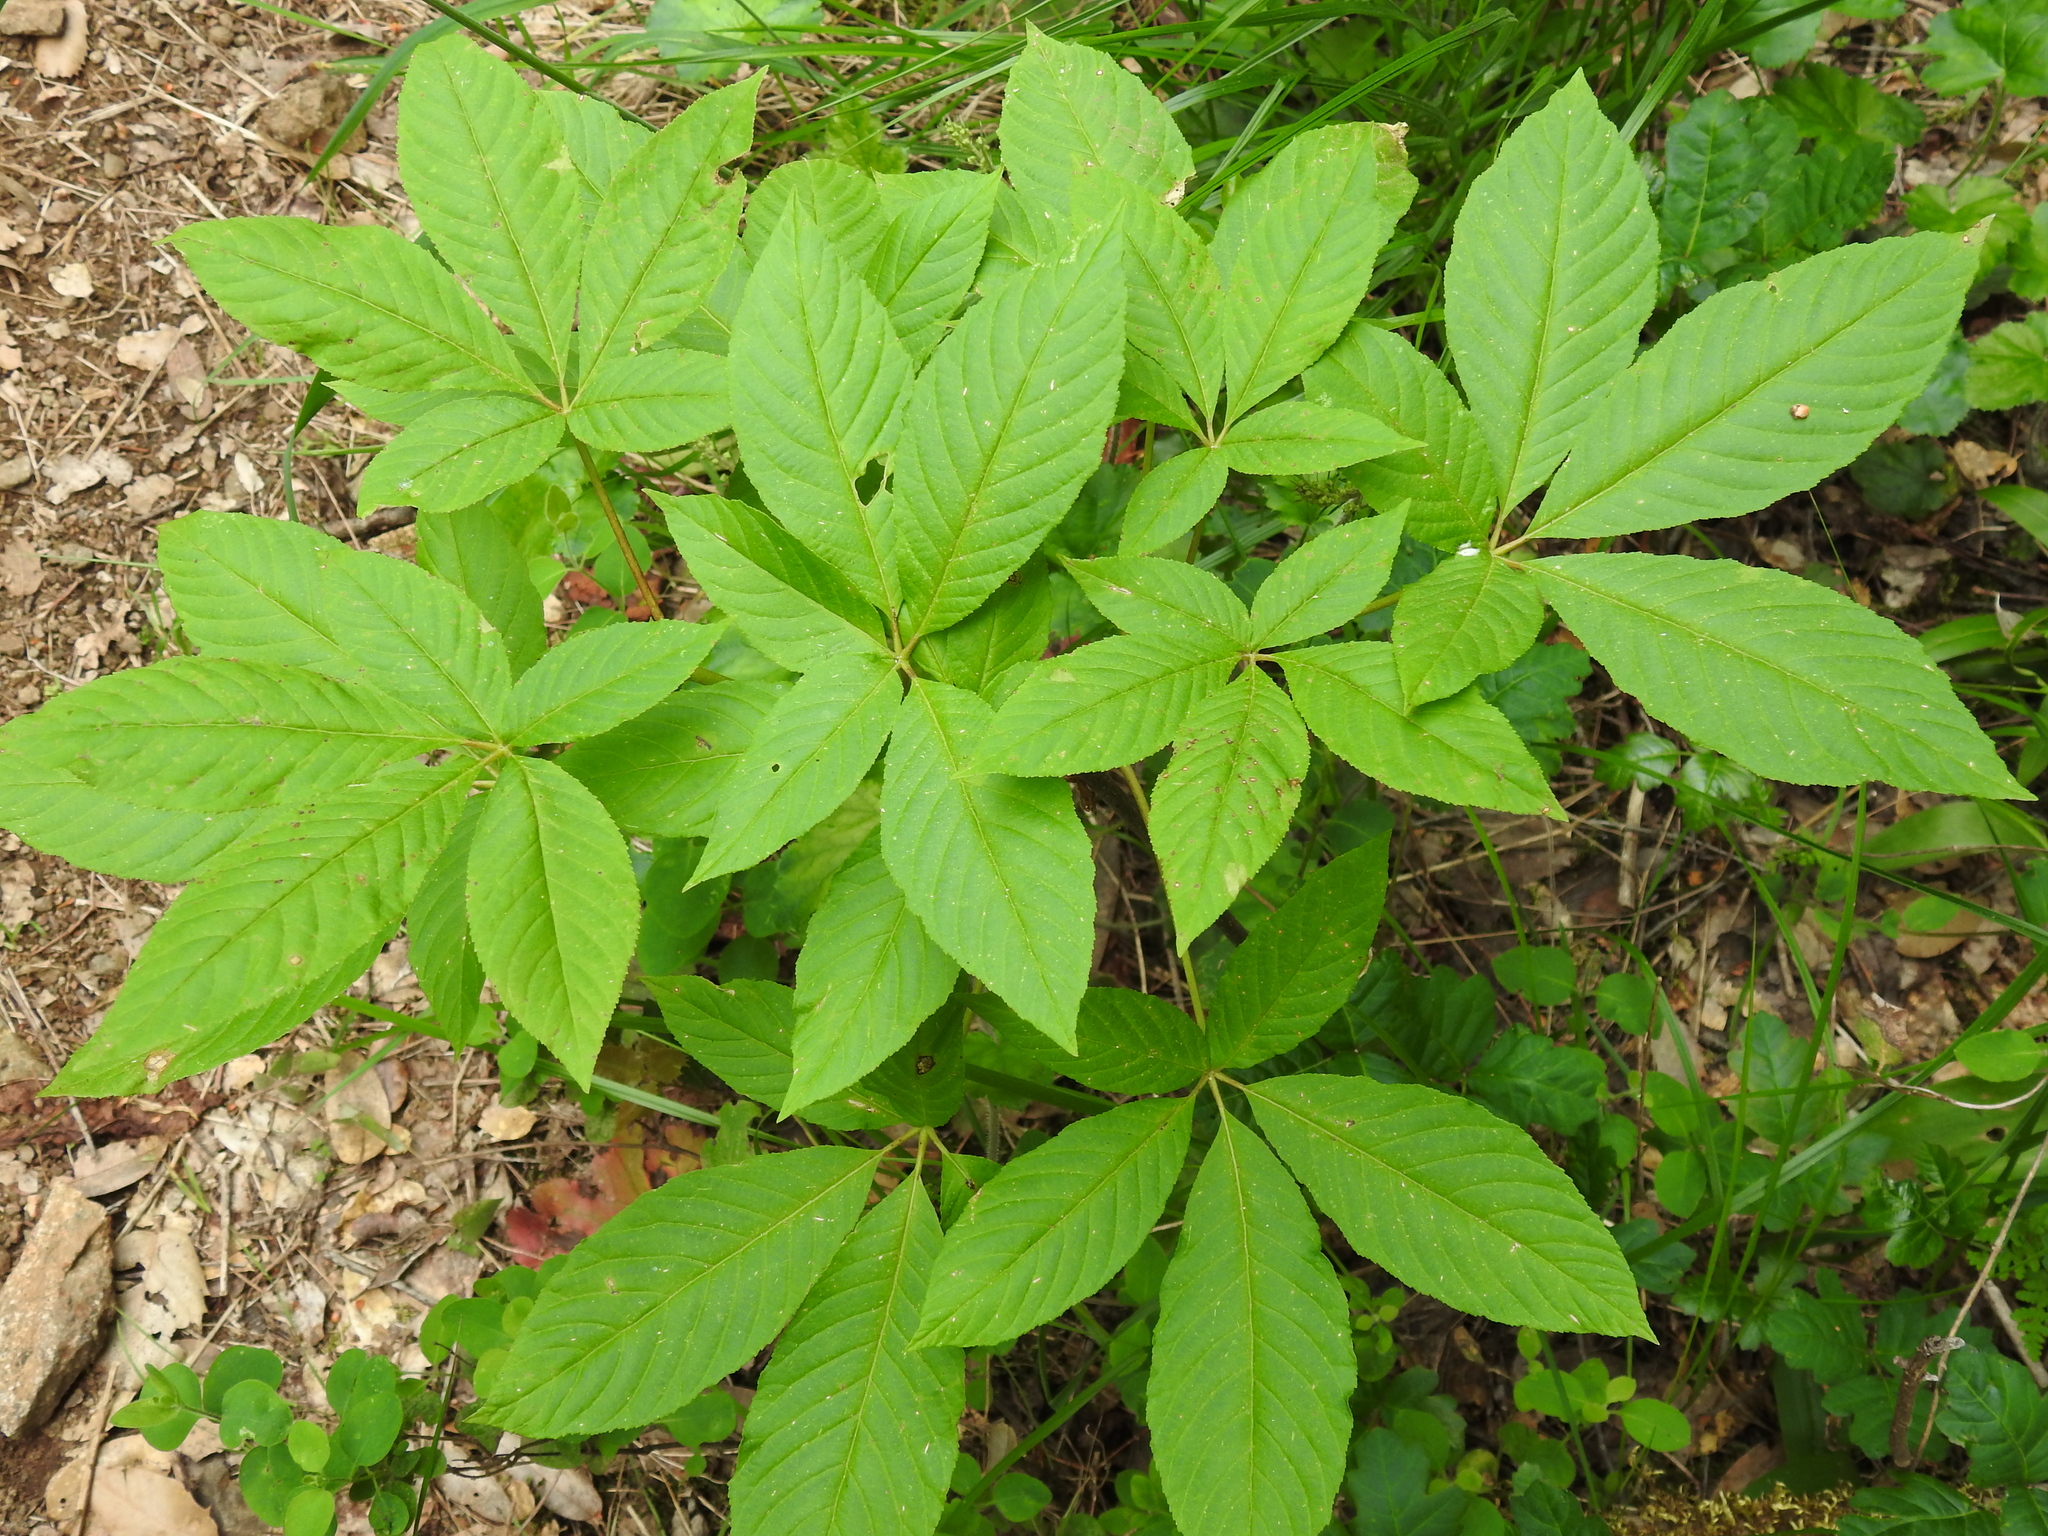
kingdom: Plantae
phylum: Tracheophyta
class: Magnoliopsida
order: Sapindales
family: Sapindaceae
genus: Aesculus
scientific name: Aesculus californica
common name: California buckeye
